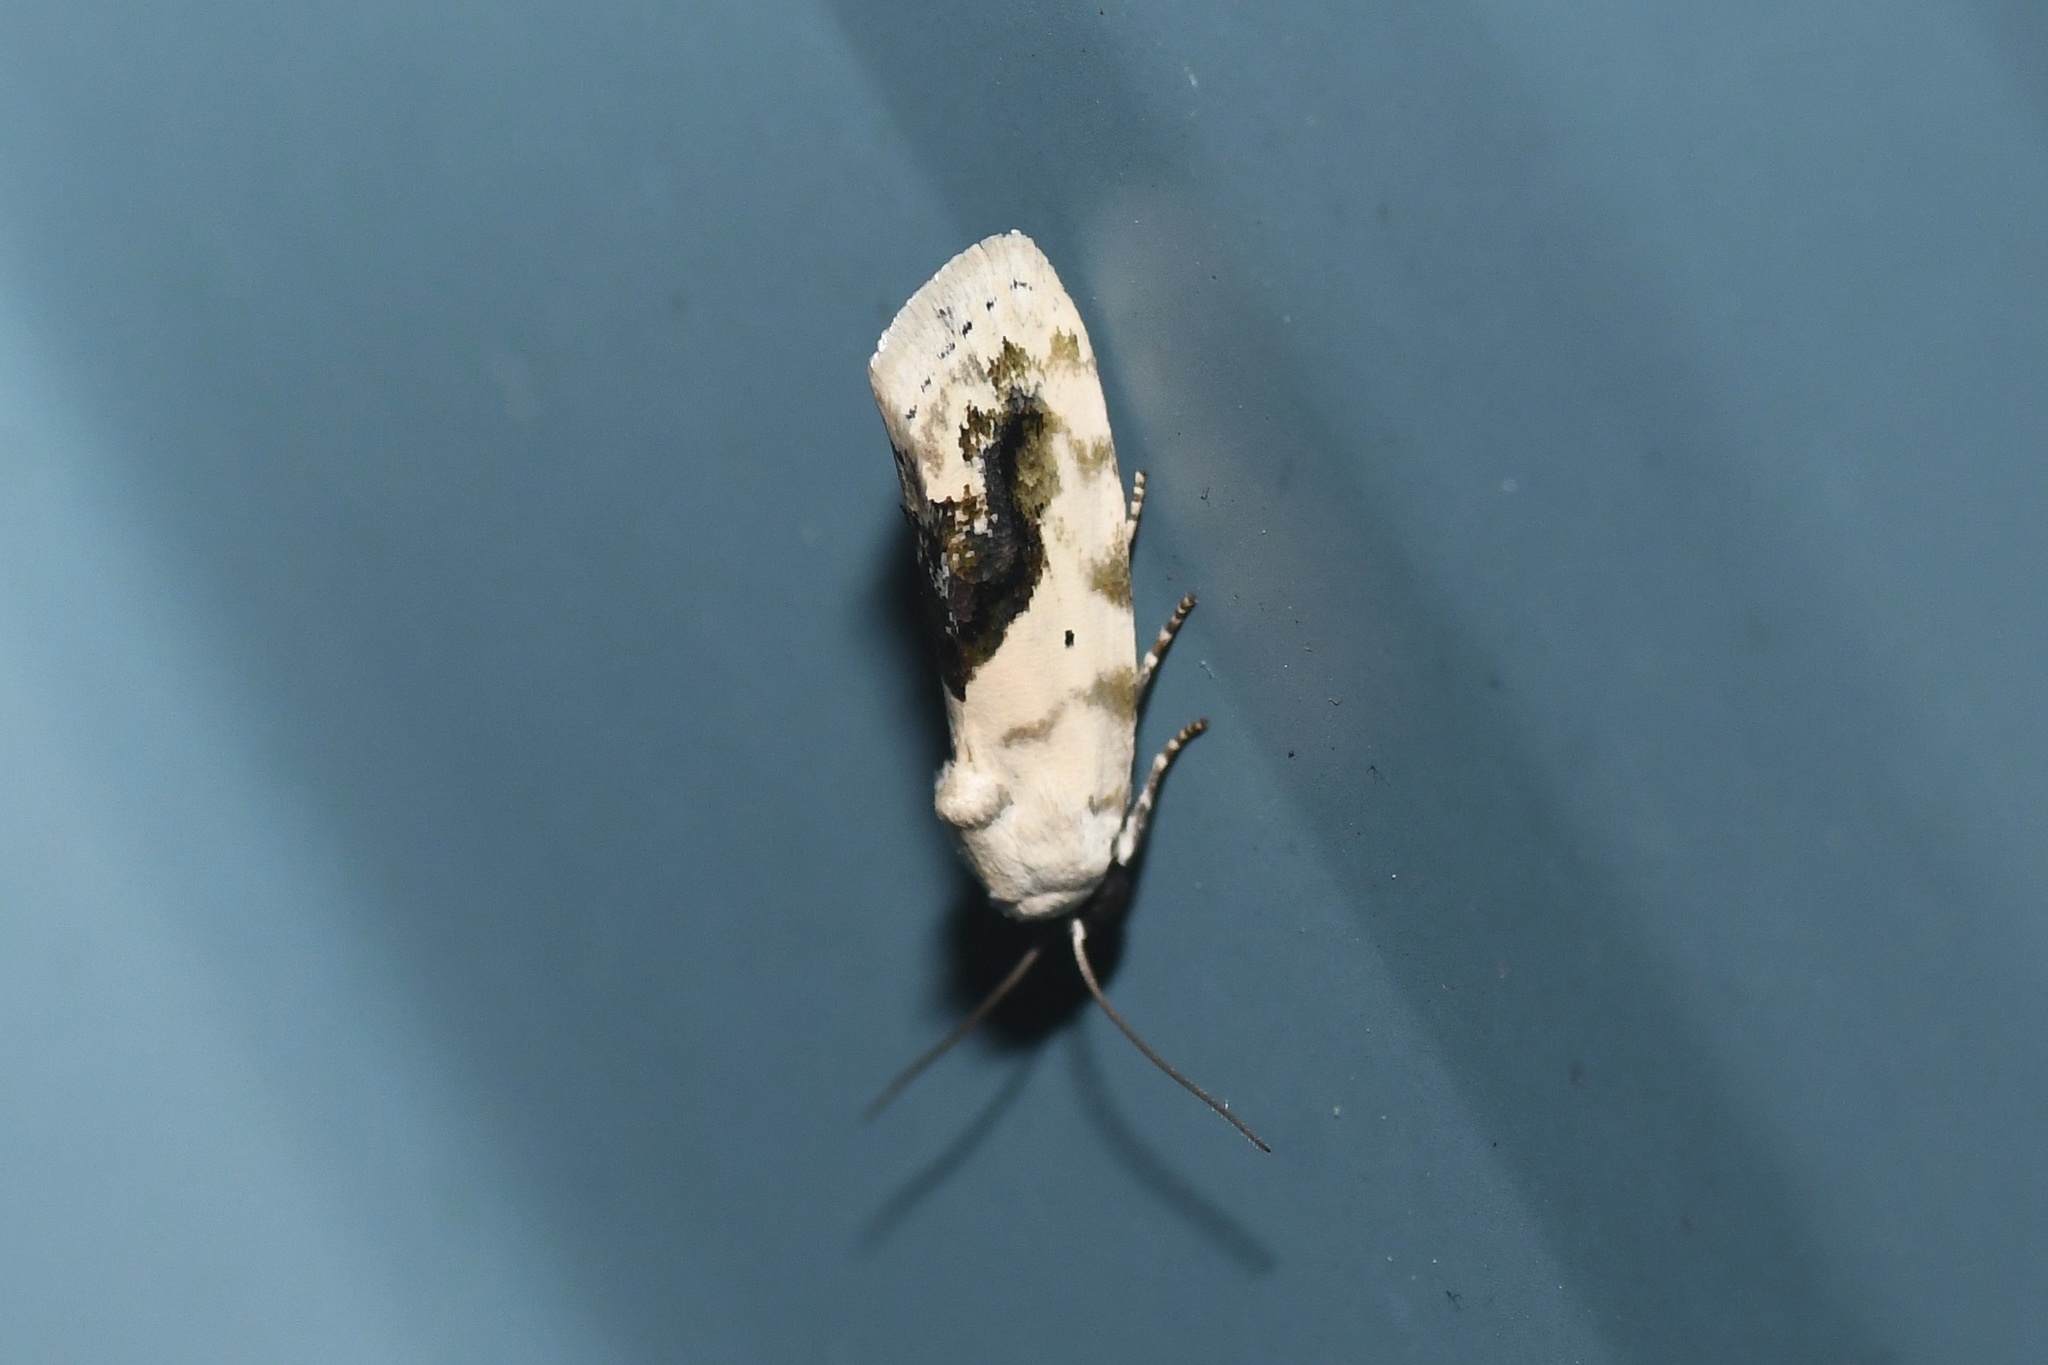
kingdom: Animalia
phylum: Arthropoda
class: Insecta
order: Lepidoptera
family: Noctuidae
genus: Acontia
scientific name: Acontia erastrioides
